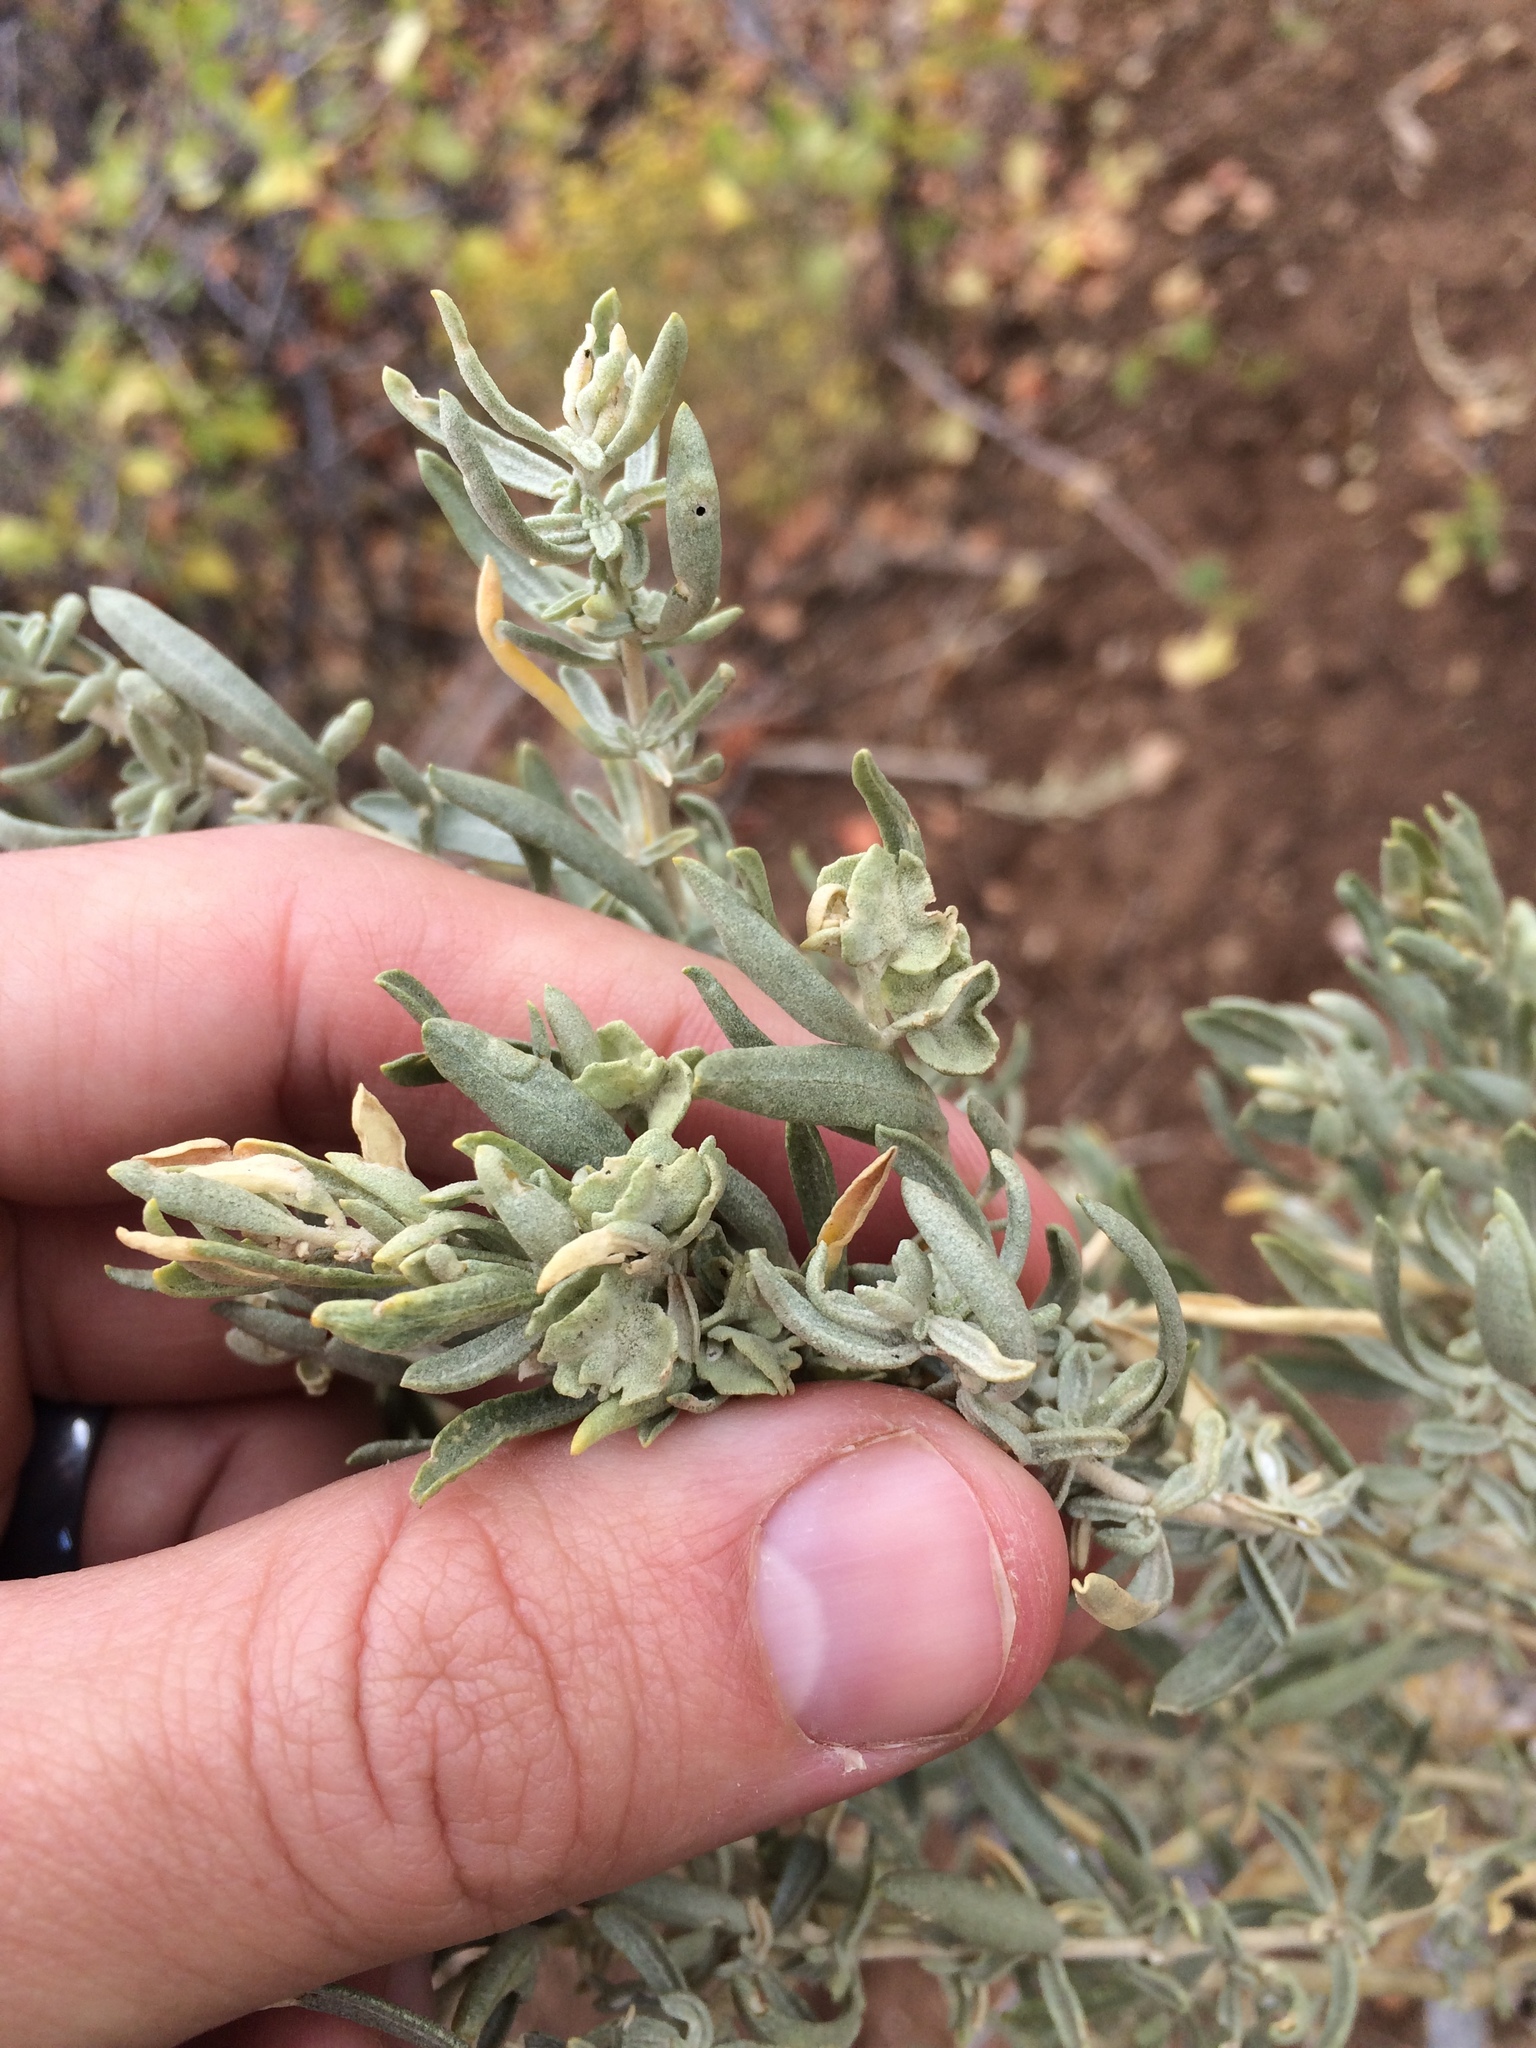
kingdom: Plantae
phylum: Tracheophyta
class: Magnoliopsida
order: Caryophyllales
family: Amaranthaceae
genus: Atriplex
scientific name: Atriplex canescens
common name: Four-wing saltbush
